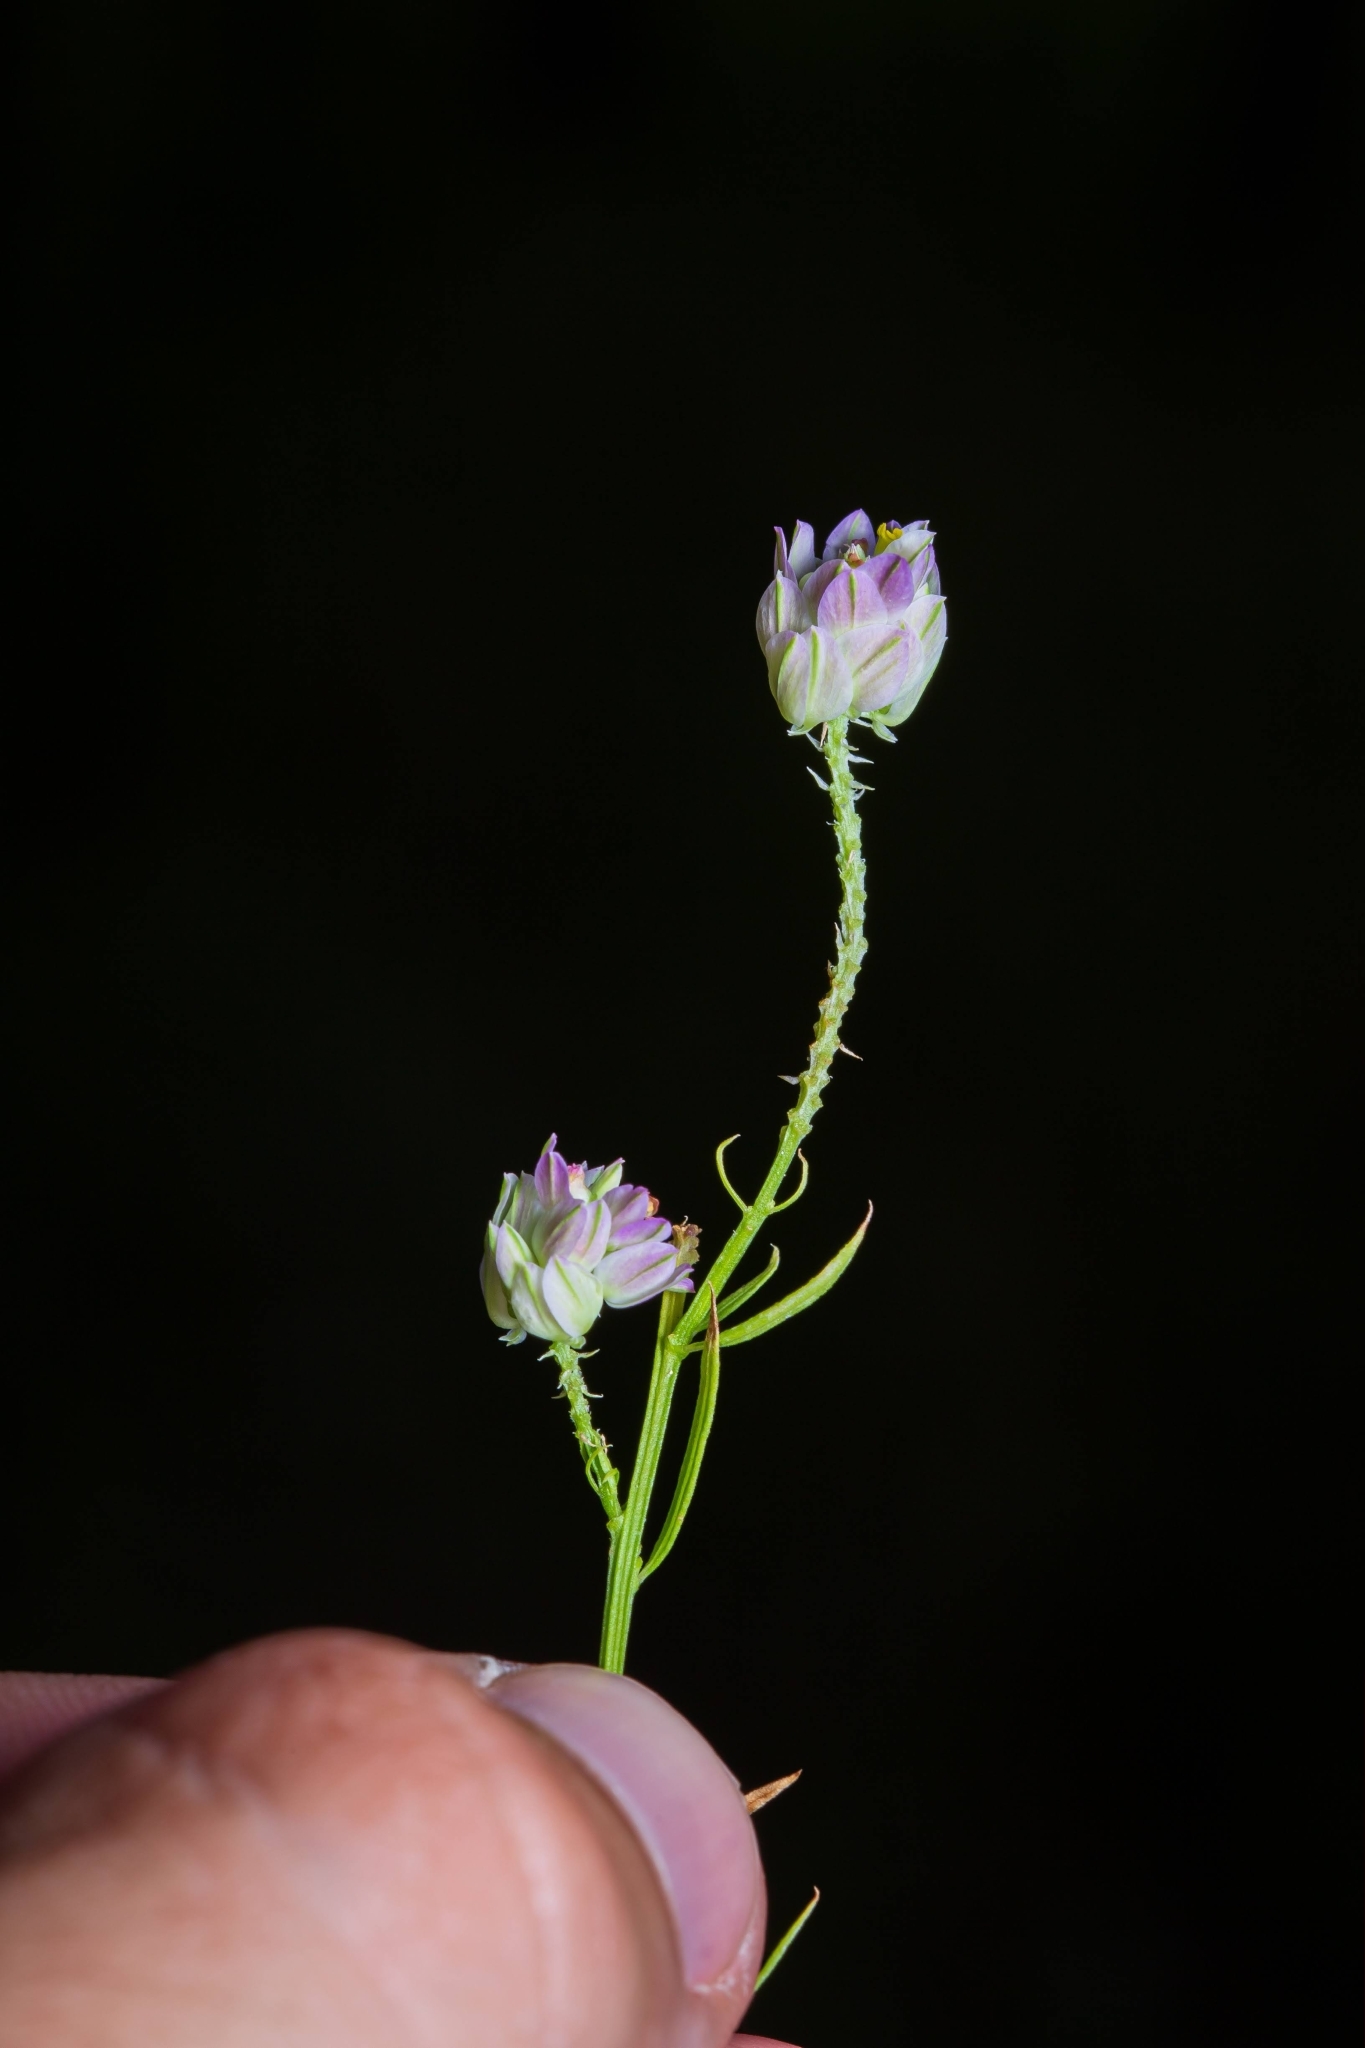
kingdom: Plantae
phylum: Tracheophyta
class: Magnoliopsida
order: Fabales
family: Polygalaceae
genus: Polygala
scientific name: Polygala sanguinea
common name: Blood milkwort
